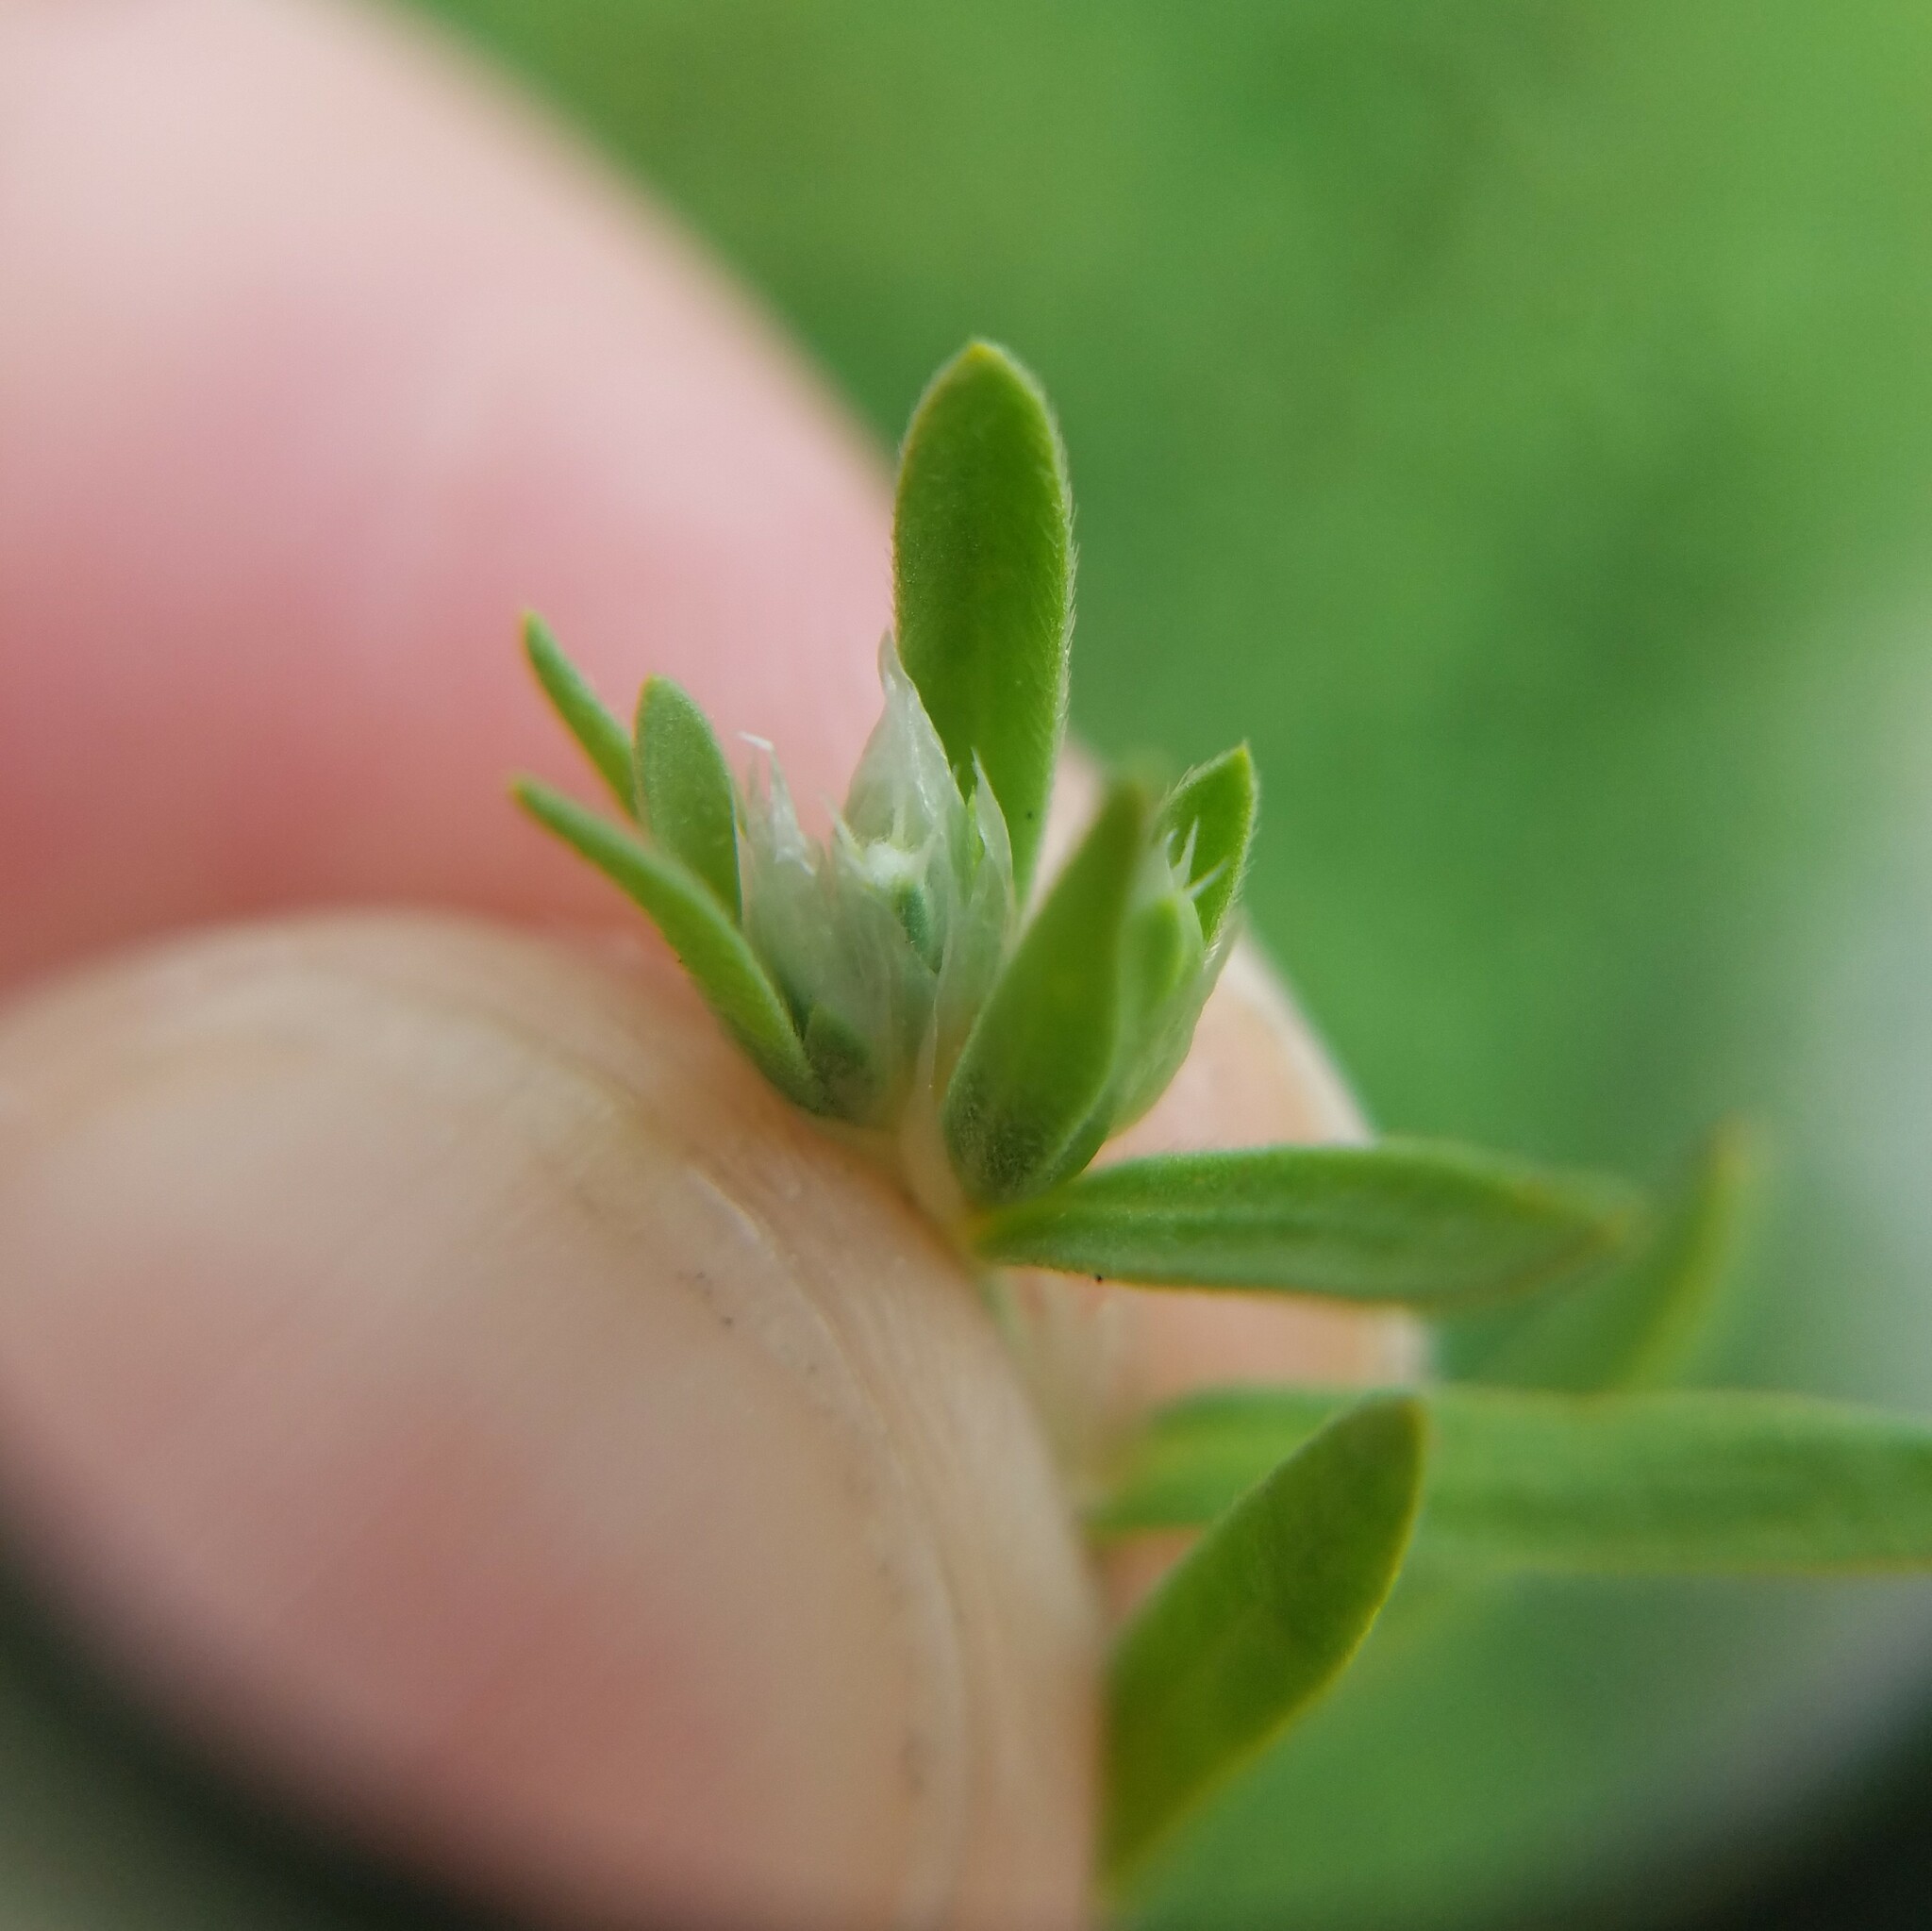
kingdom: Plantae
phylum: Tracheophyta
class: Magnoliopsida
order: Caryophyllales
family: Caryophyllaceae
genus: Paronychia
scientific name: Paronychia argyrocoma
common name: Silverling
